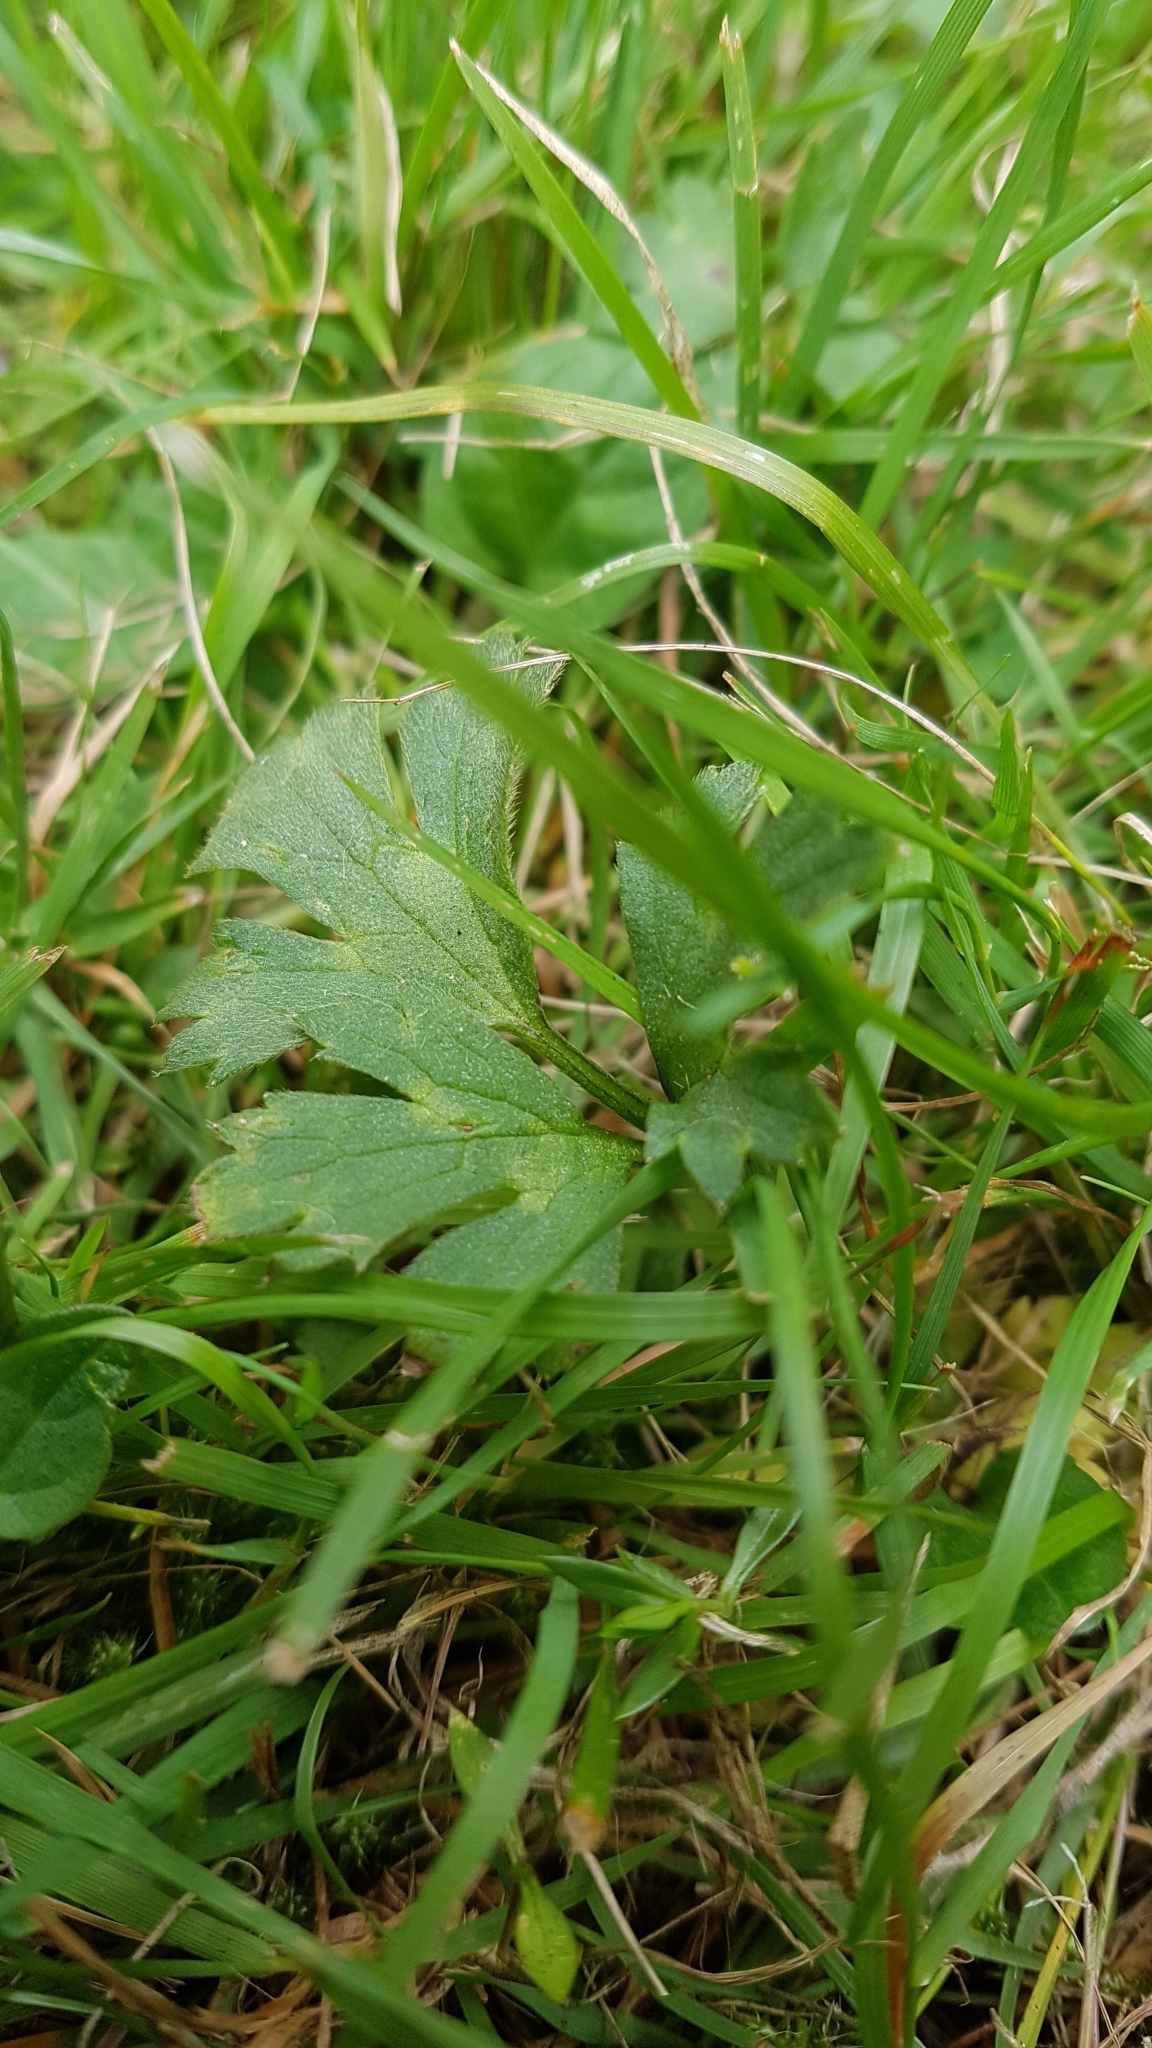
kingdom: Plantae
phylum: Tracheophyta
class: Magnoliopsida
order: Ranunculales
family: Ranunculaceae
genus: Ranunculus
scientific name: Ranunculus repens
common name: Creeping buttercup
